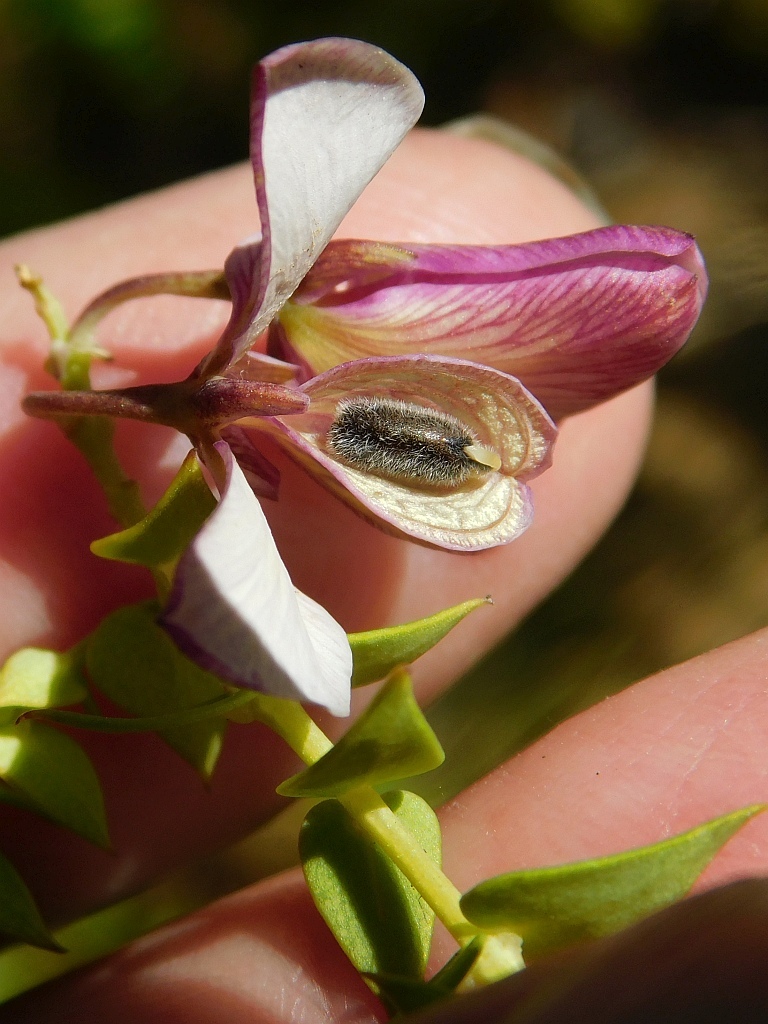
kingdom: Plantae
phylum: Tracheophyta
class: Magnoliopsida
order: Fabales
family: Polygalaceae
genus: Polygala
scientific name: Polygala fruticosa
